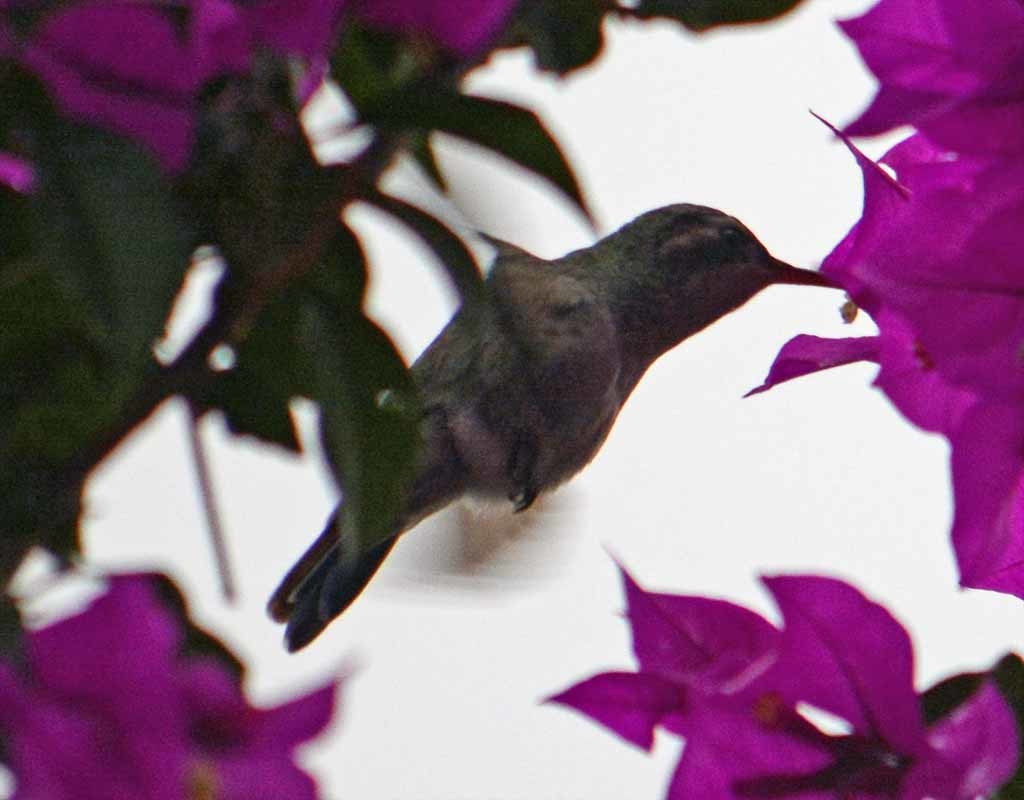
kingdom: Animalia
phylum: Chordata
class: Aves
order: Apodiformes
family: Trochilidae
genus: Cynanthus
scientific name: Cynanthus latirostris
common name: Broad-billed hummingbird
